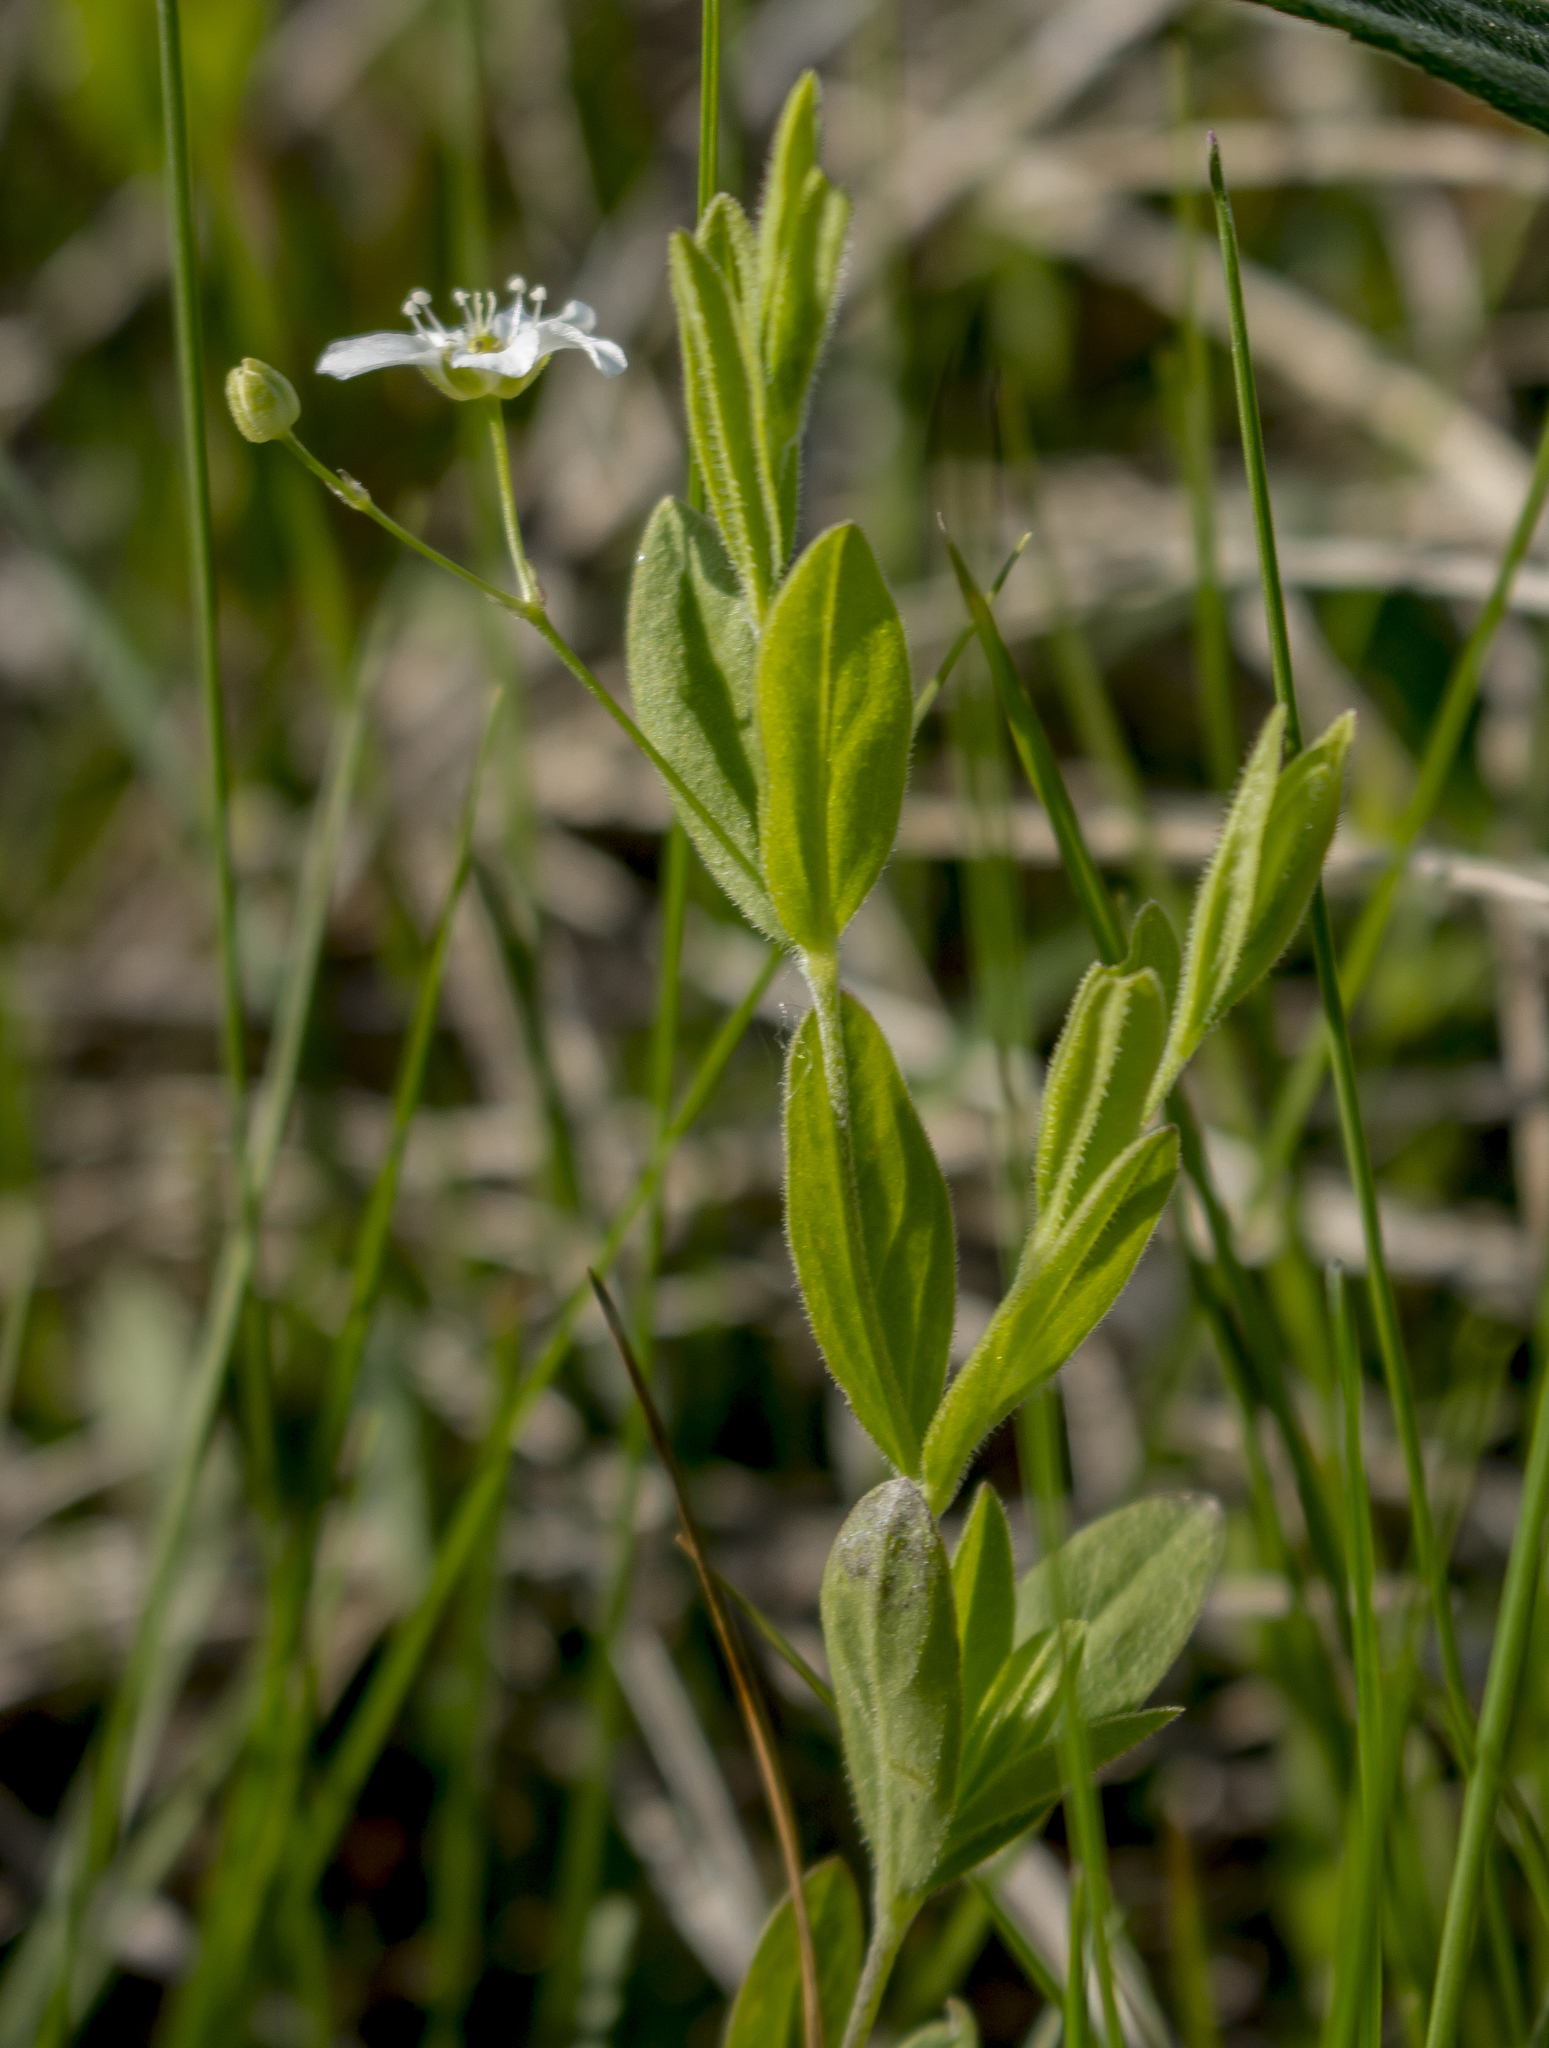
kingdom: Plantae
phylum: Tracheophyta
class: Magnoliopsida
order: Caryophyllales
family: Caryophyllaceae
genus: Moehringia
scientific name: Moehringia lateriflora
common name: Blunt-leaved sandwort
